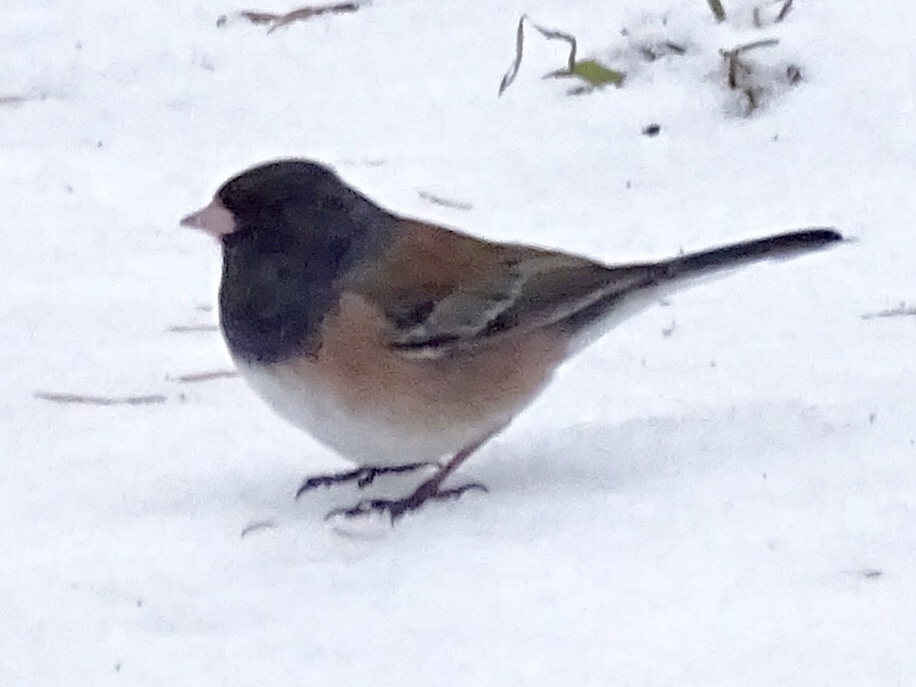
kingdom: Animalia
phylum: Chordata
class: Aves
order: Passeriformes
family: Passerellidae
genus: Junco
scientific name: Junco hyemalis
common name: Dark-eyed junco
